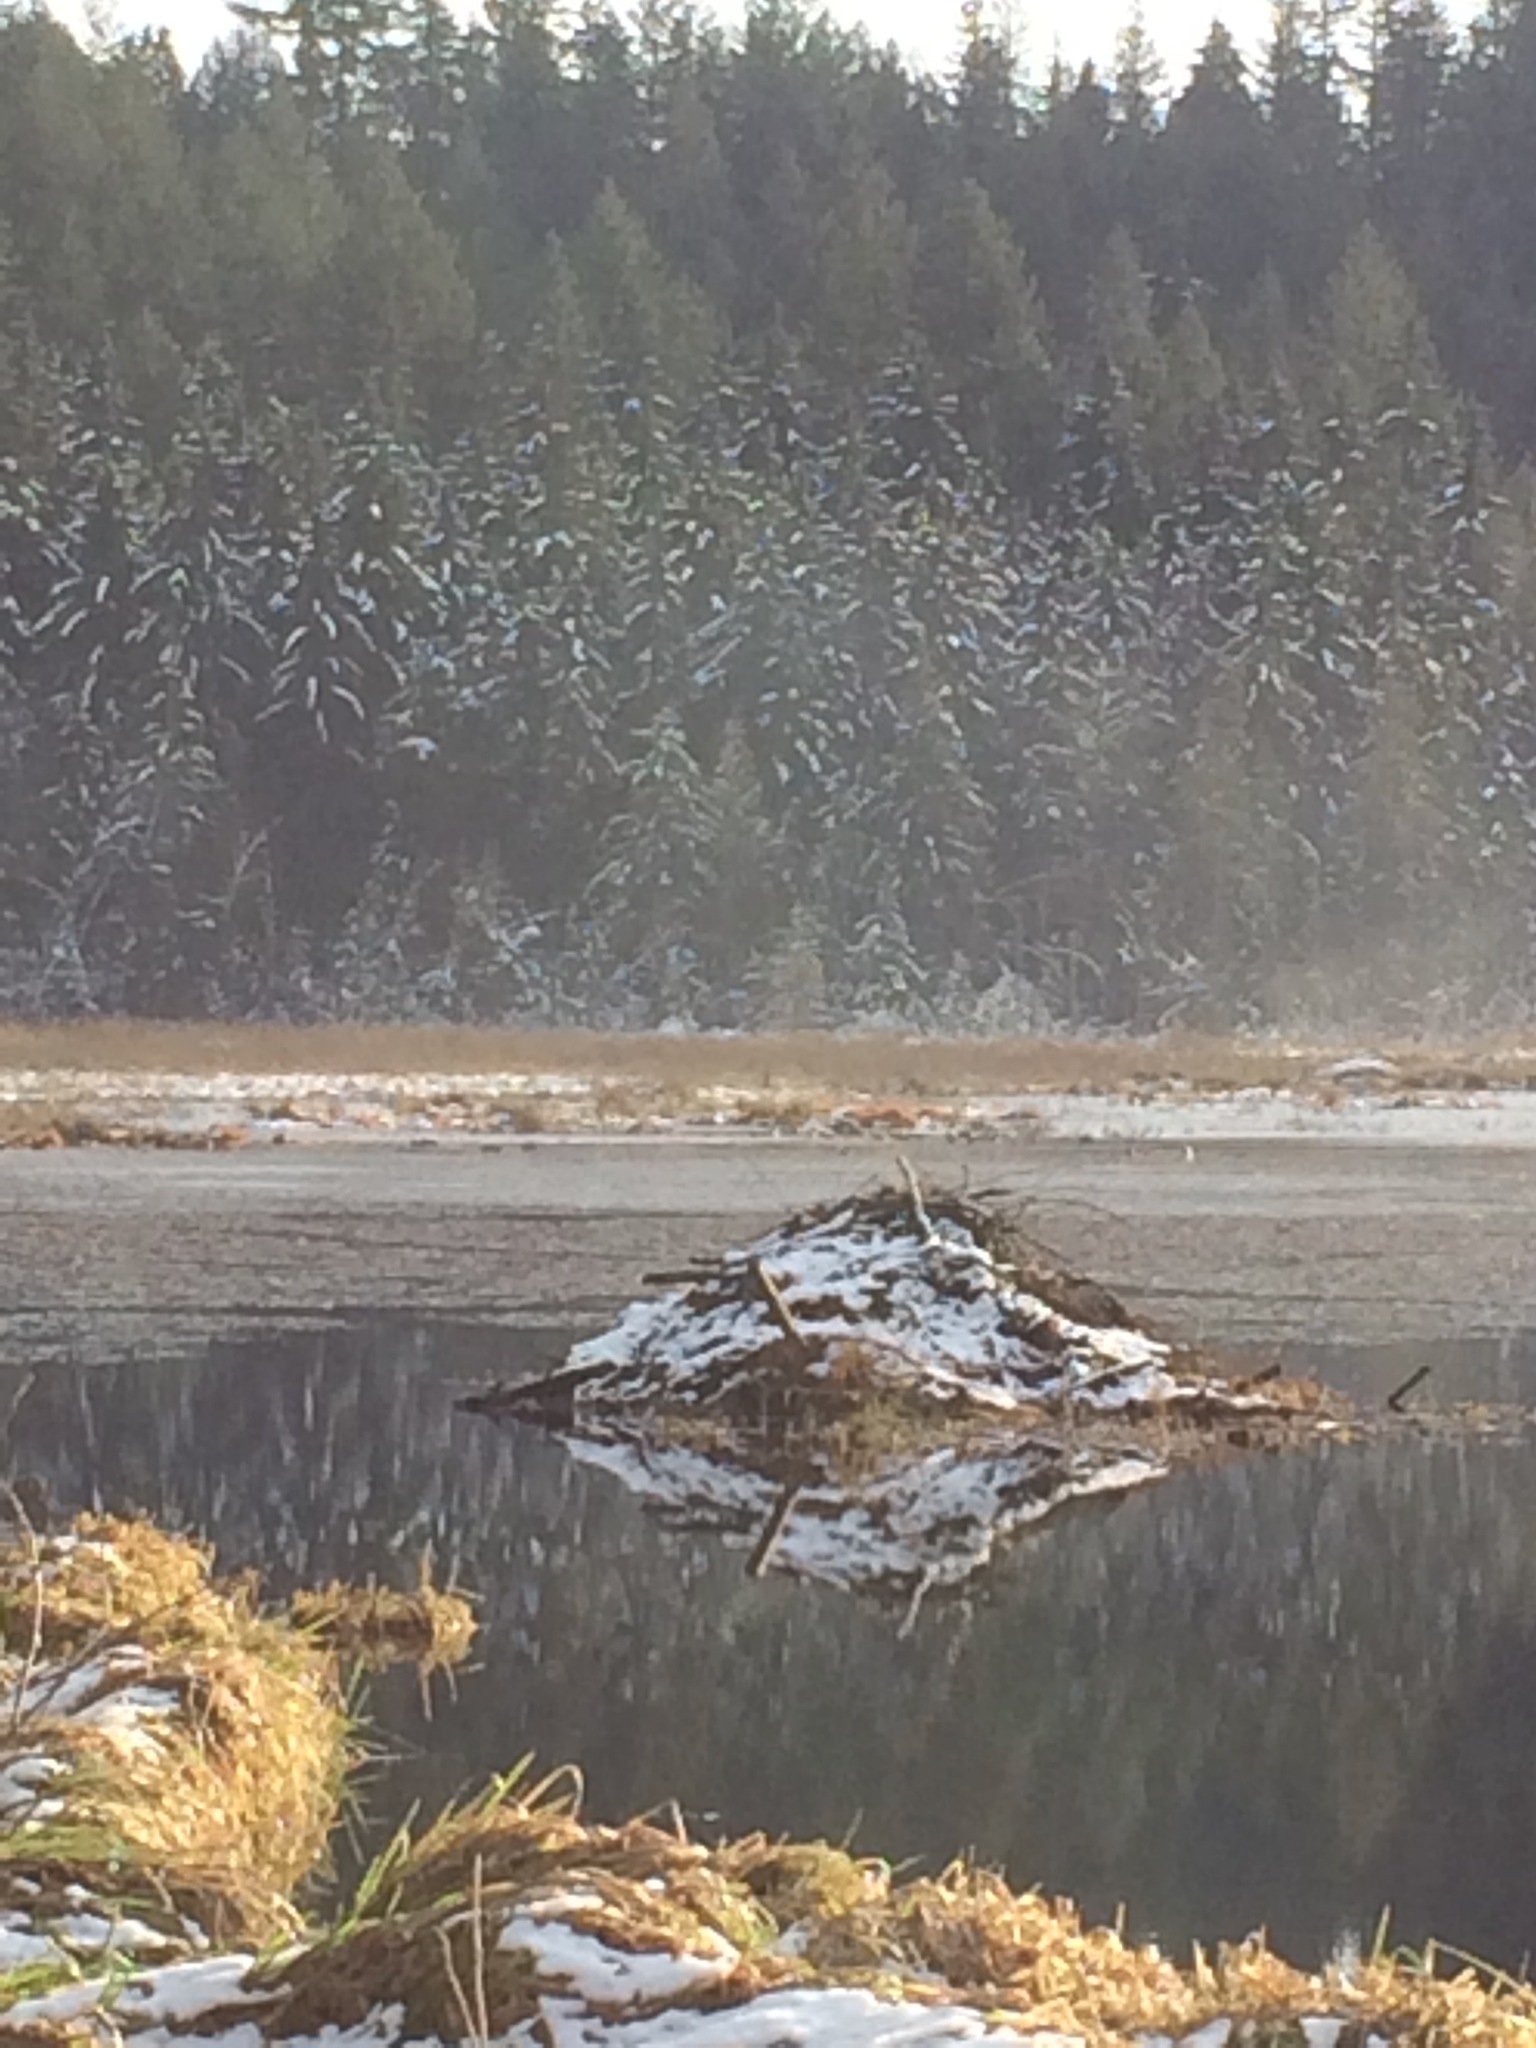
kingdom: Animalia
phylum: Chordata
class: Mammalia
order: Rodentia
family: Castoridae
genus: Castor
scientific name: Castor canadensis
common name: American beaver
